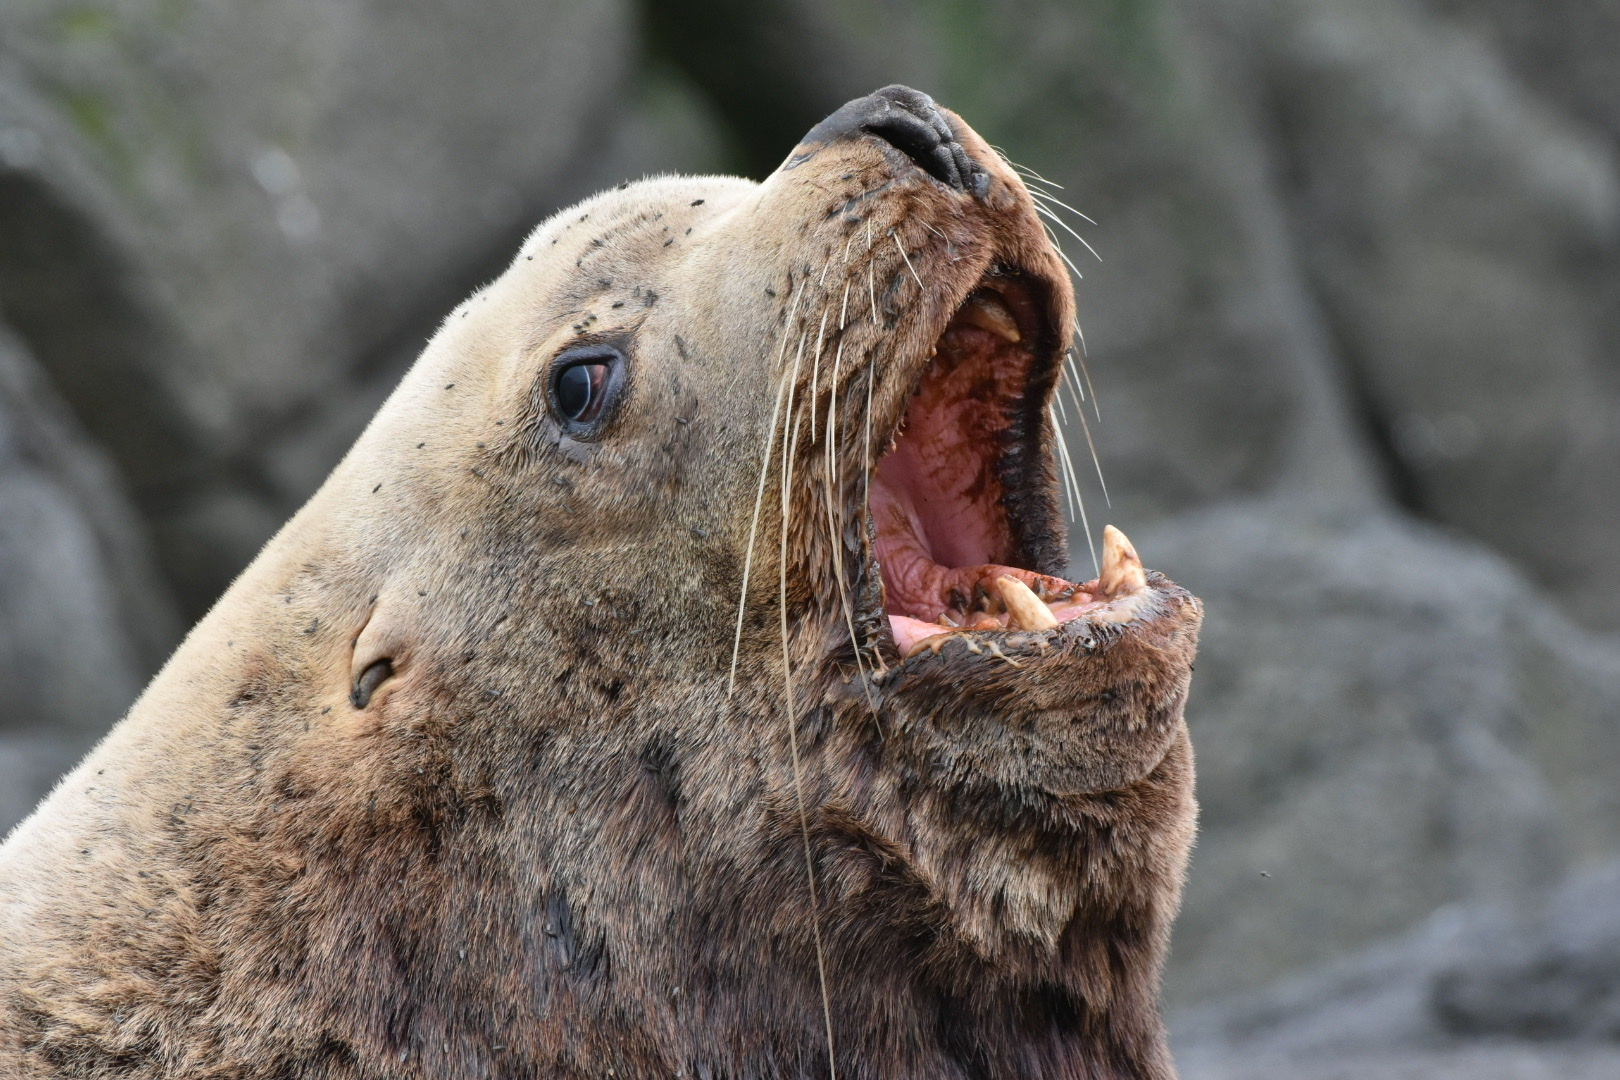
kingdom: Animalia
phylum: Chordata
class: Mammalia
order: Carnivora
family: Otariidae
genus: Eumetopias
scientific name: Eumetopias jubatus
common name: Steller sea lion
